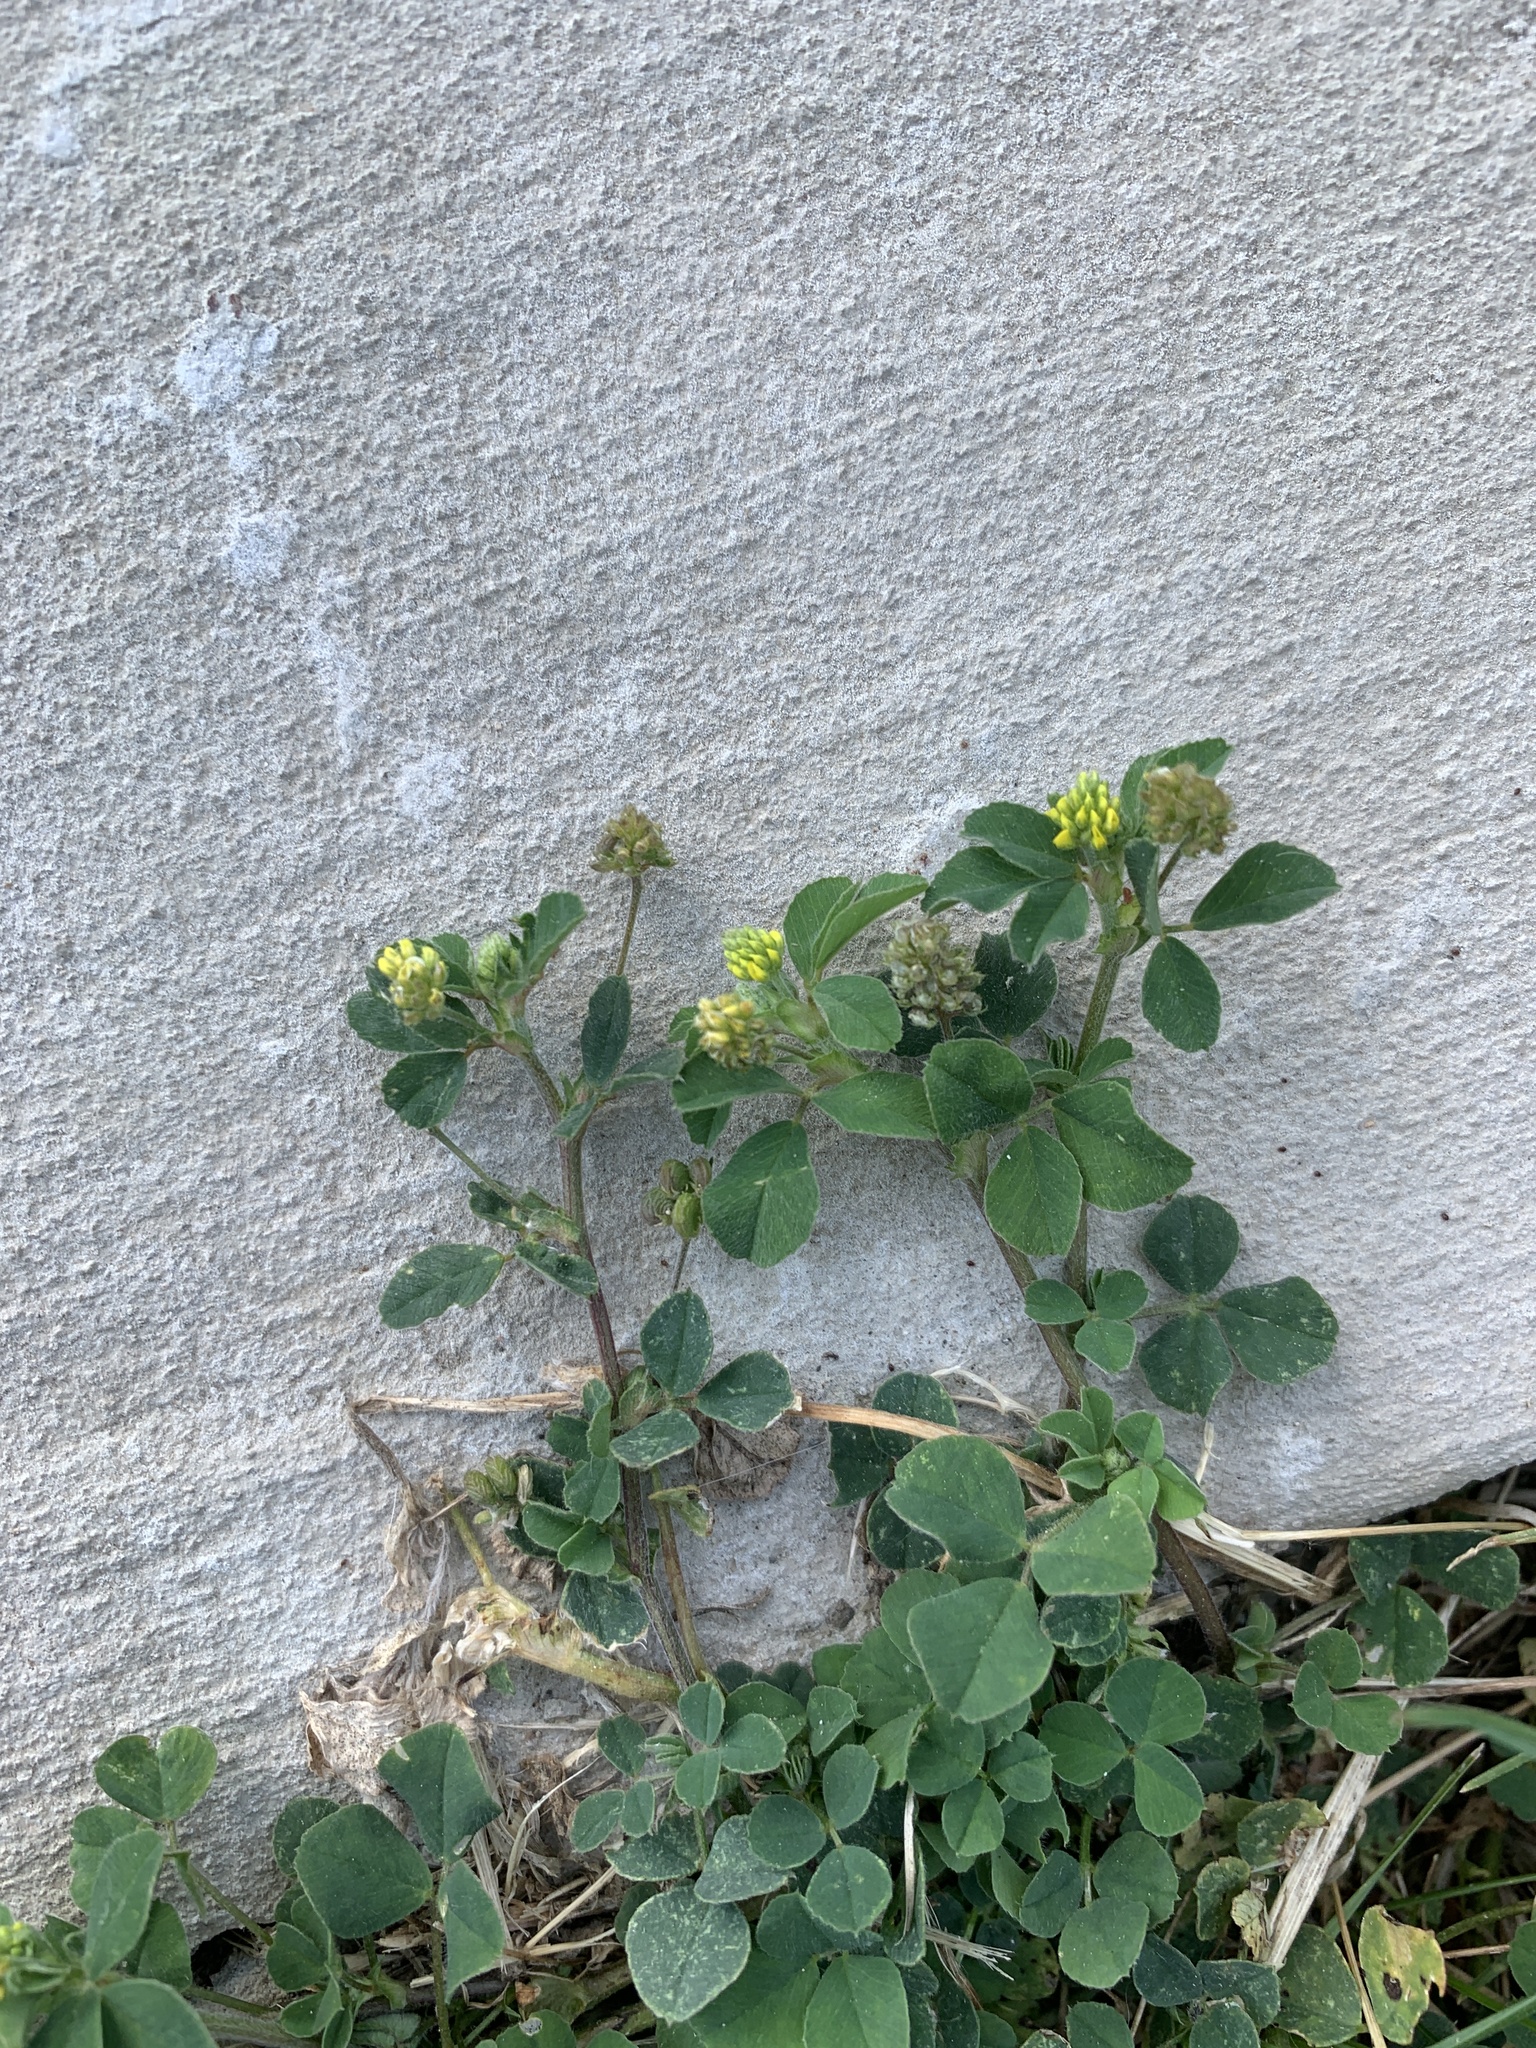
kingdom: Plantae
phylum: Tracheophyta
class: Magnoliopsida
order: Fabales
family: Fabaceae
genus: Medicago
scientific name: Medicago lupulina
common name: Black medick
